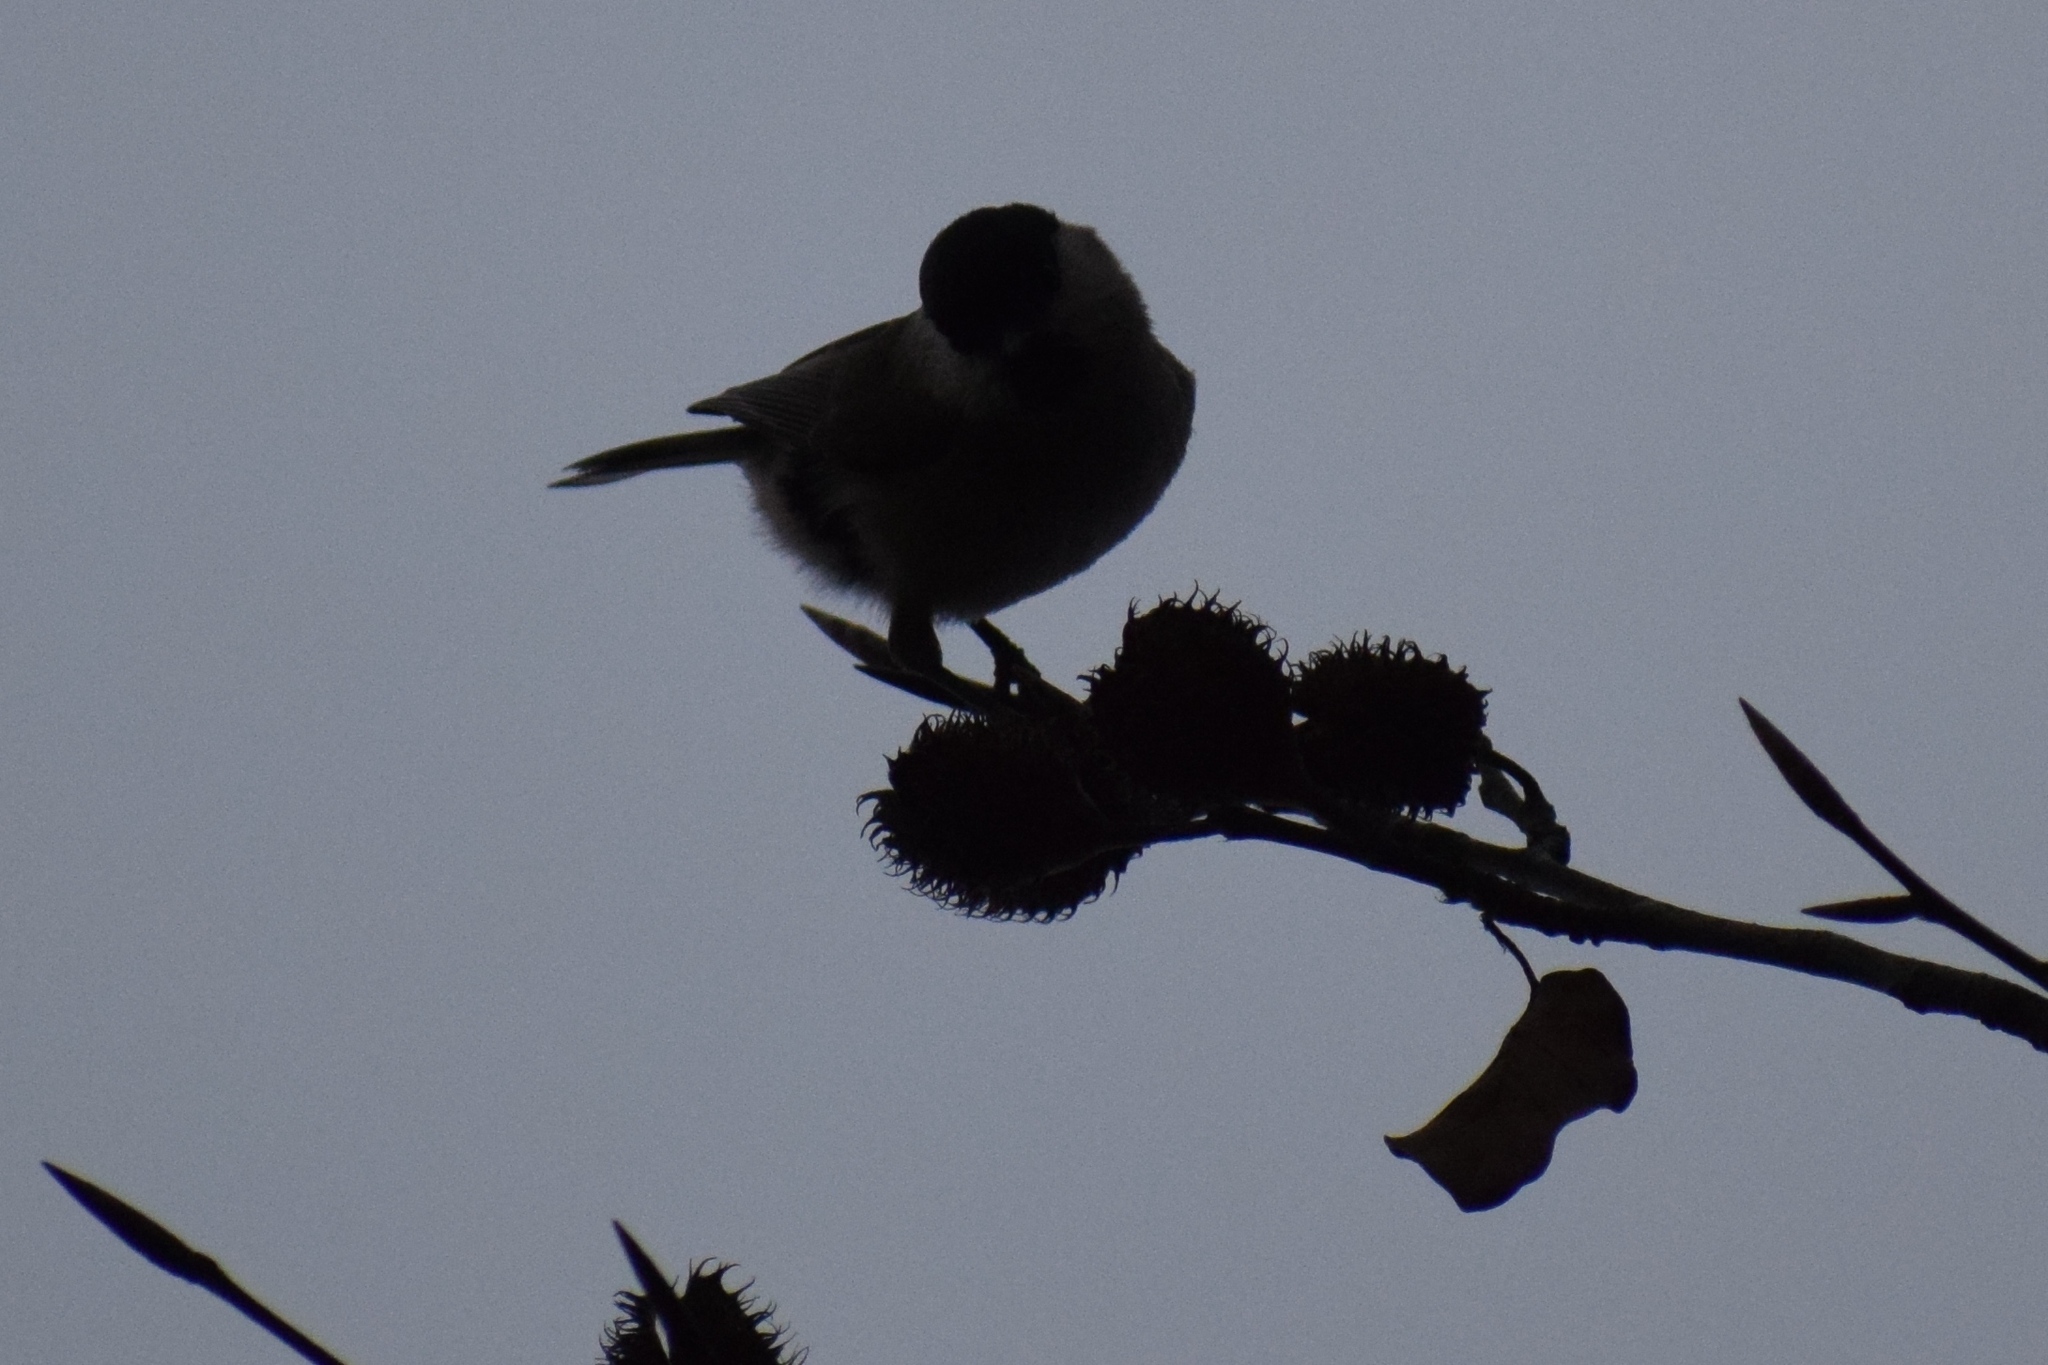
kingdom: Animalia
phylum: Chordata
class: Aves
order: Passeriformes
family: Paridae
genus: Poecile
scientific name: Poecile palustris
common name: Marsh tit
